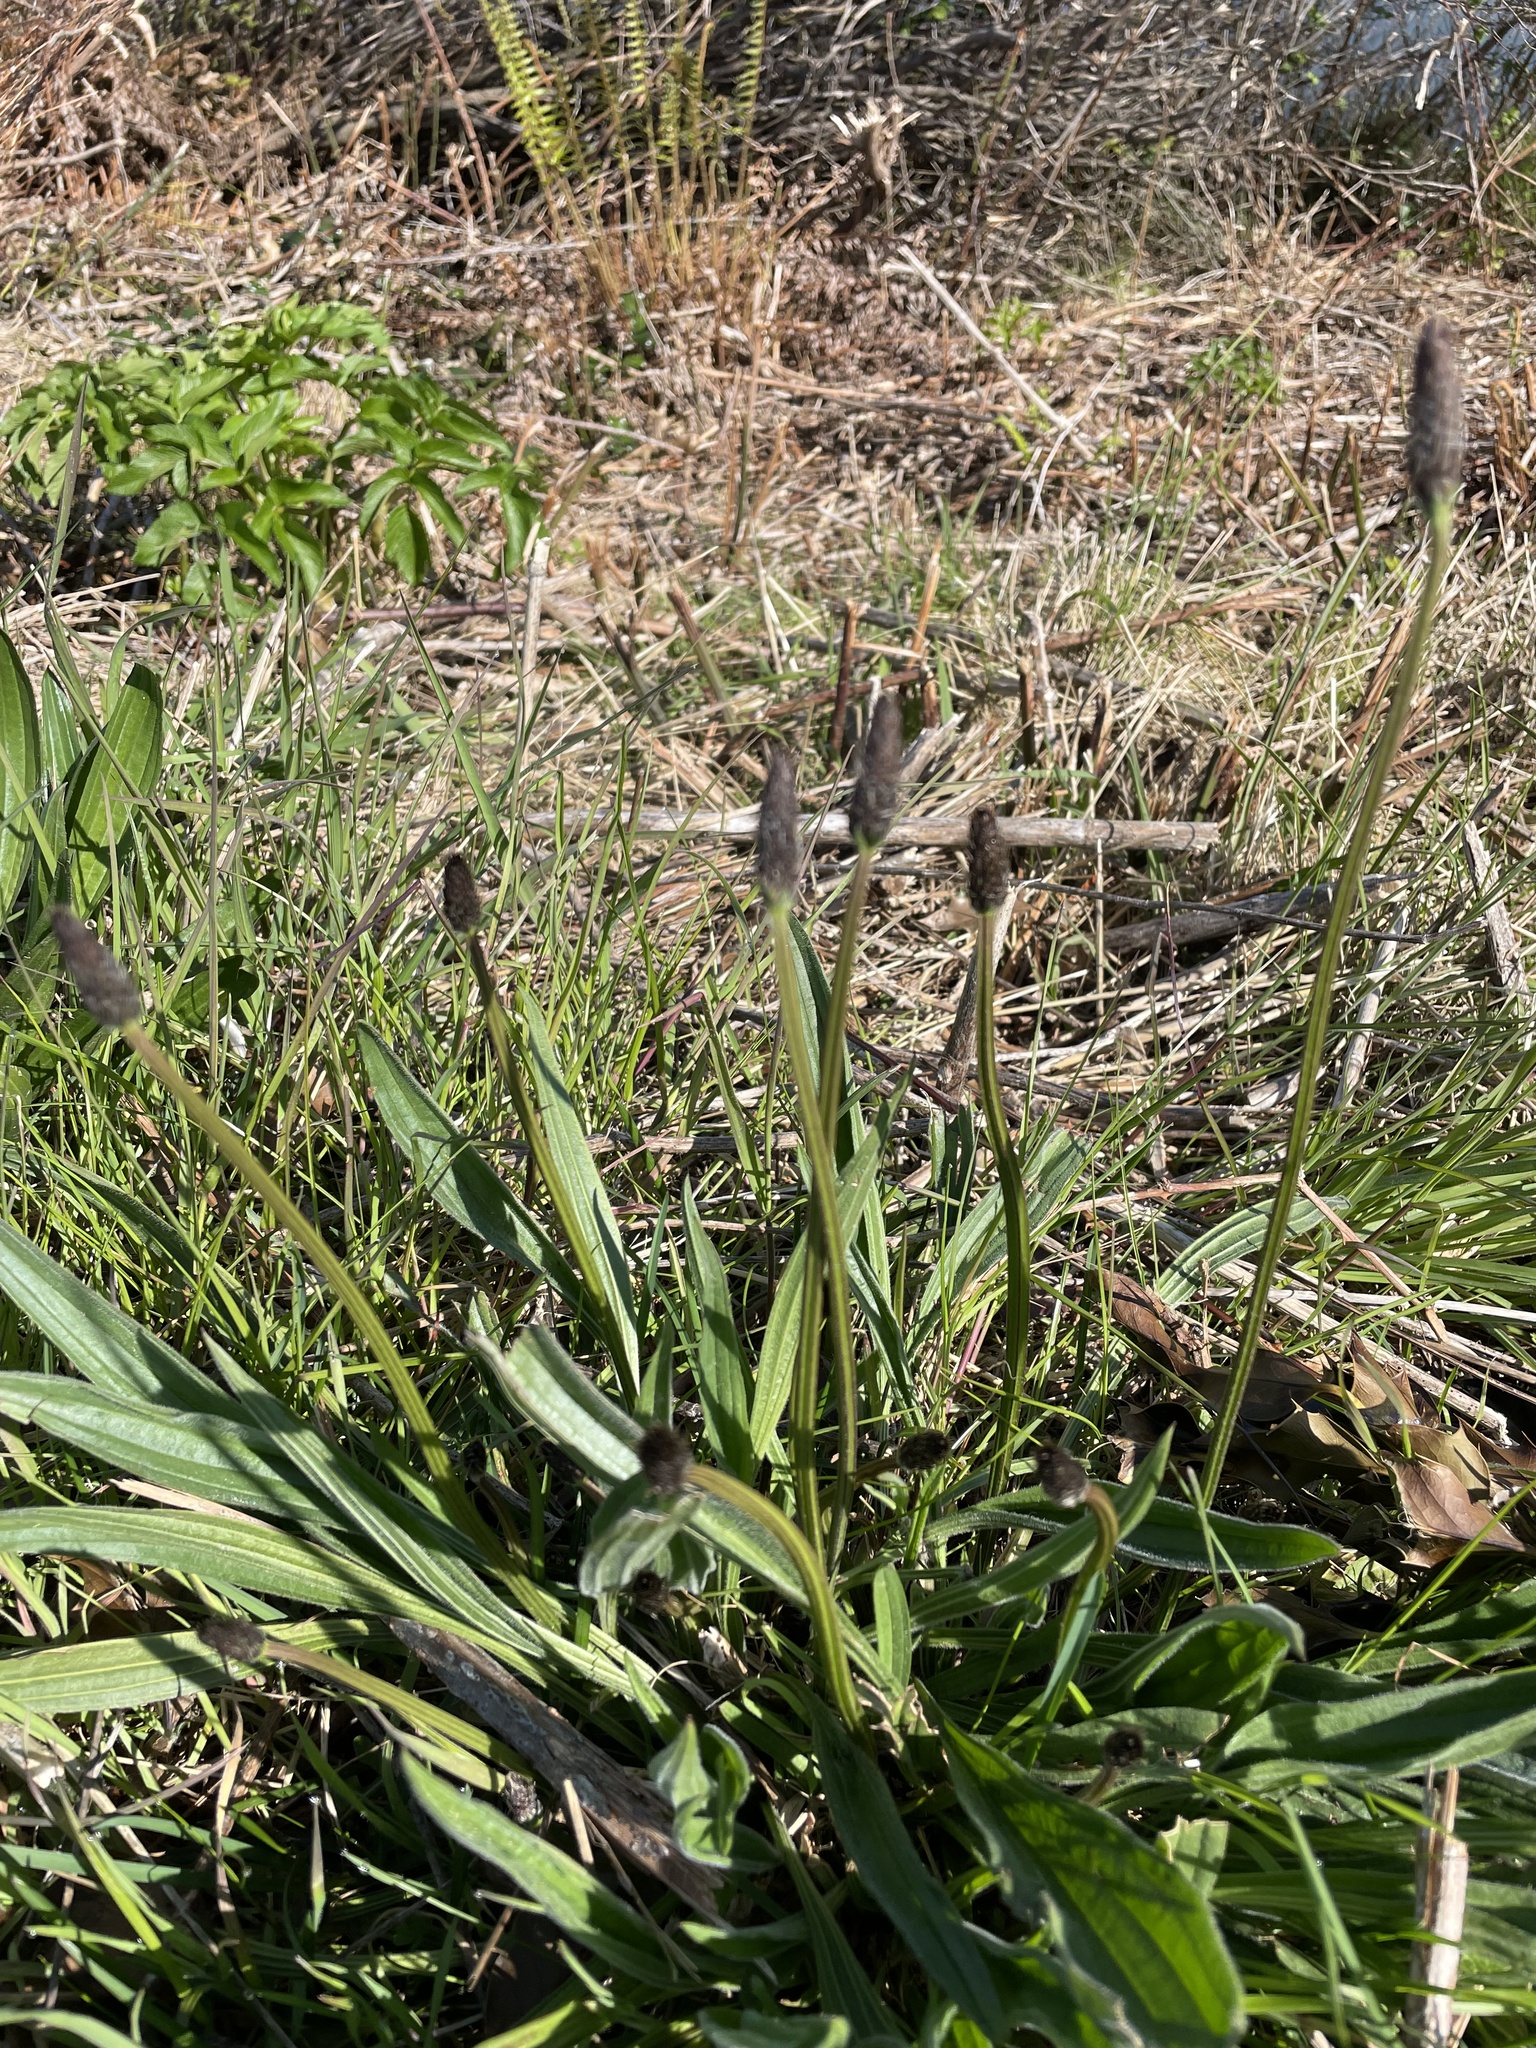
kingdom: Plantae
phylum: Tracheophyta
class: Magnoliopsida
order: Lamiales
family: Plantaginaceae
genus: Plantago
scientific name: Plantago lanceolata
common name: Ribwort plantain
